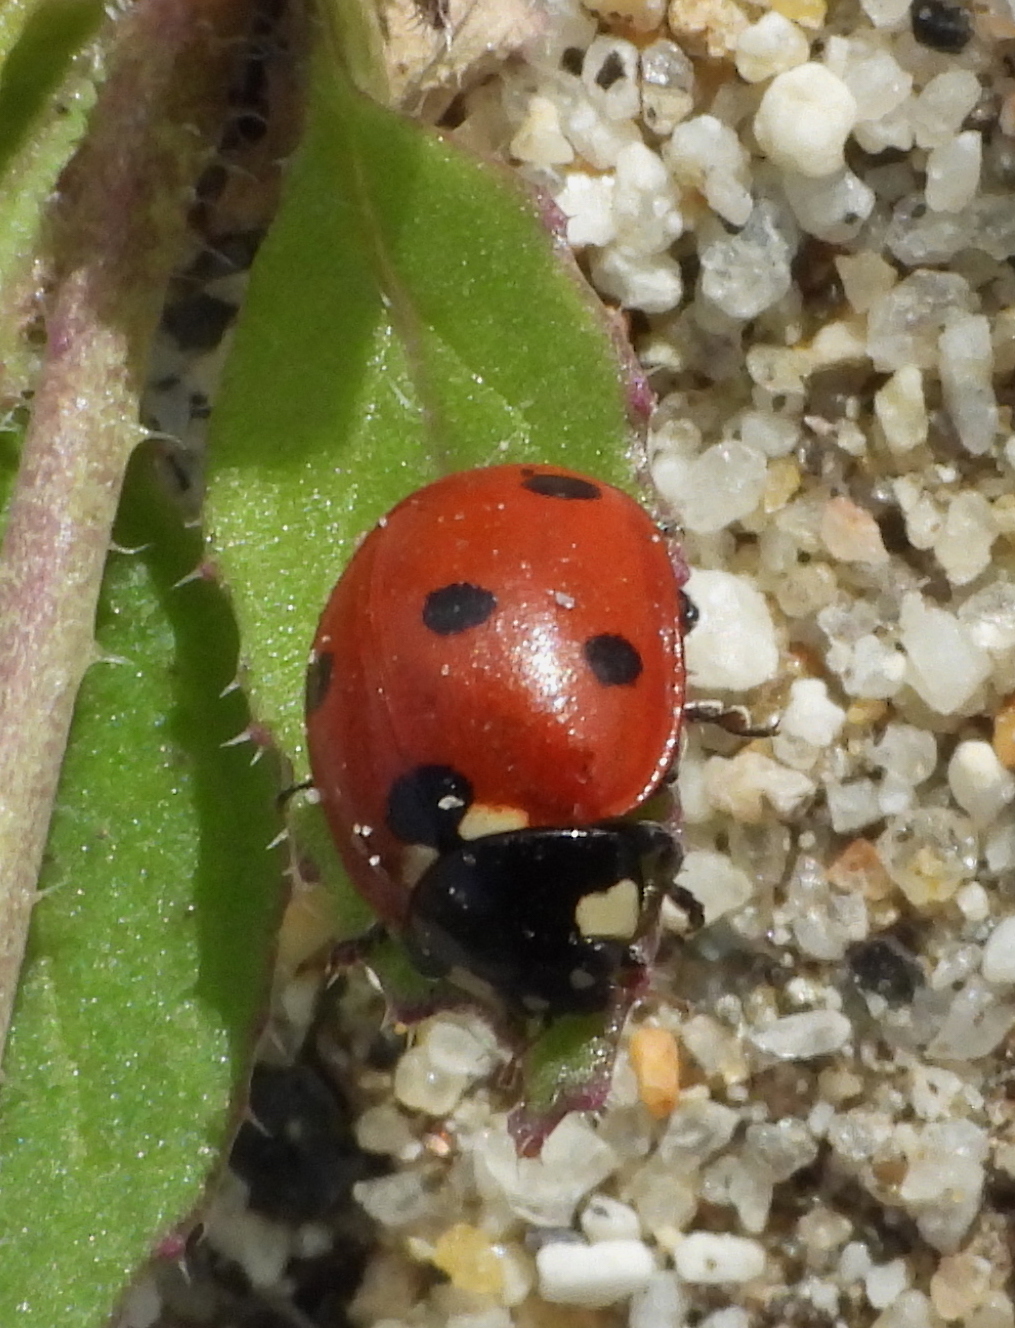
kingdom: Animalia
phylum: Arthropoda
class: Insecta
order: Coleoptera
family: Coccinellidae
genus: Coccinella
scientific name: Coccinella septempunctata
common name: Sevenspotted lady beetle
